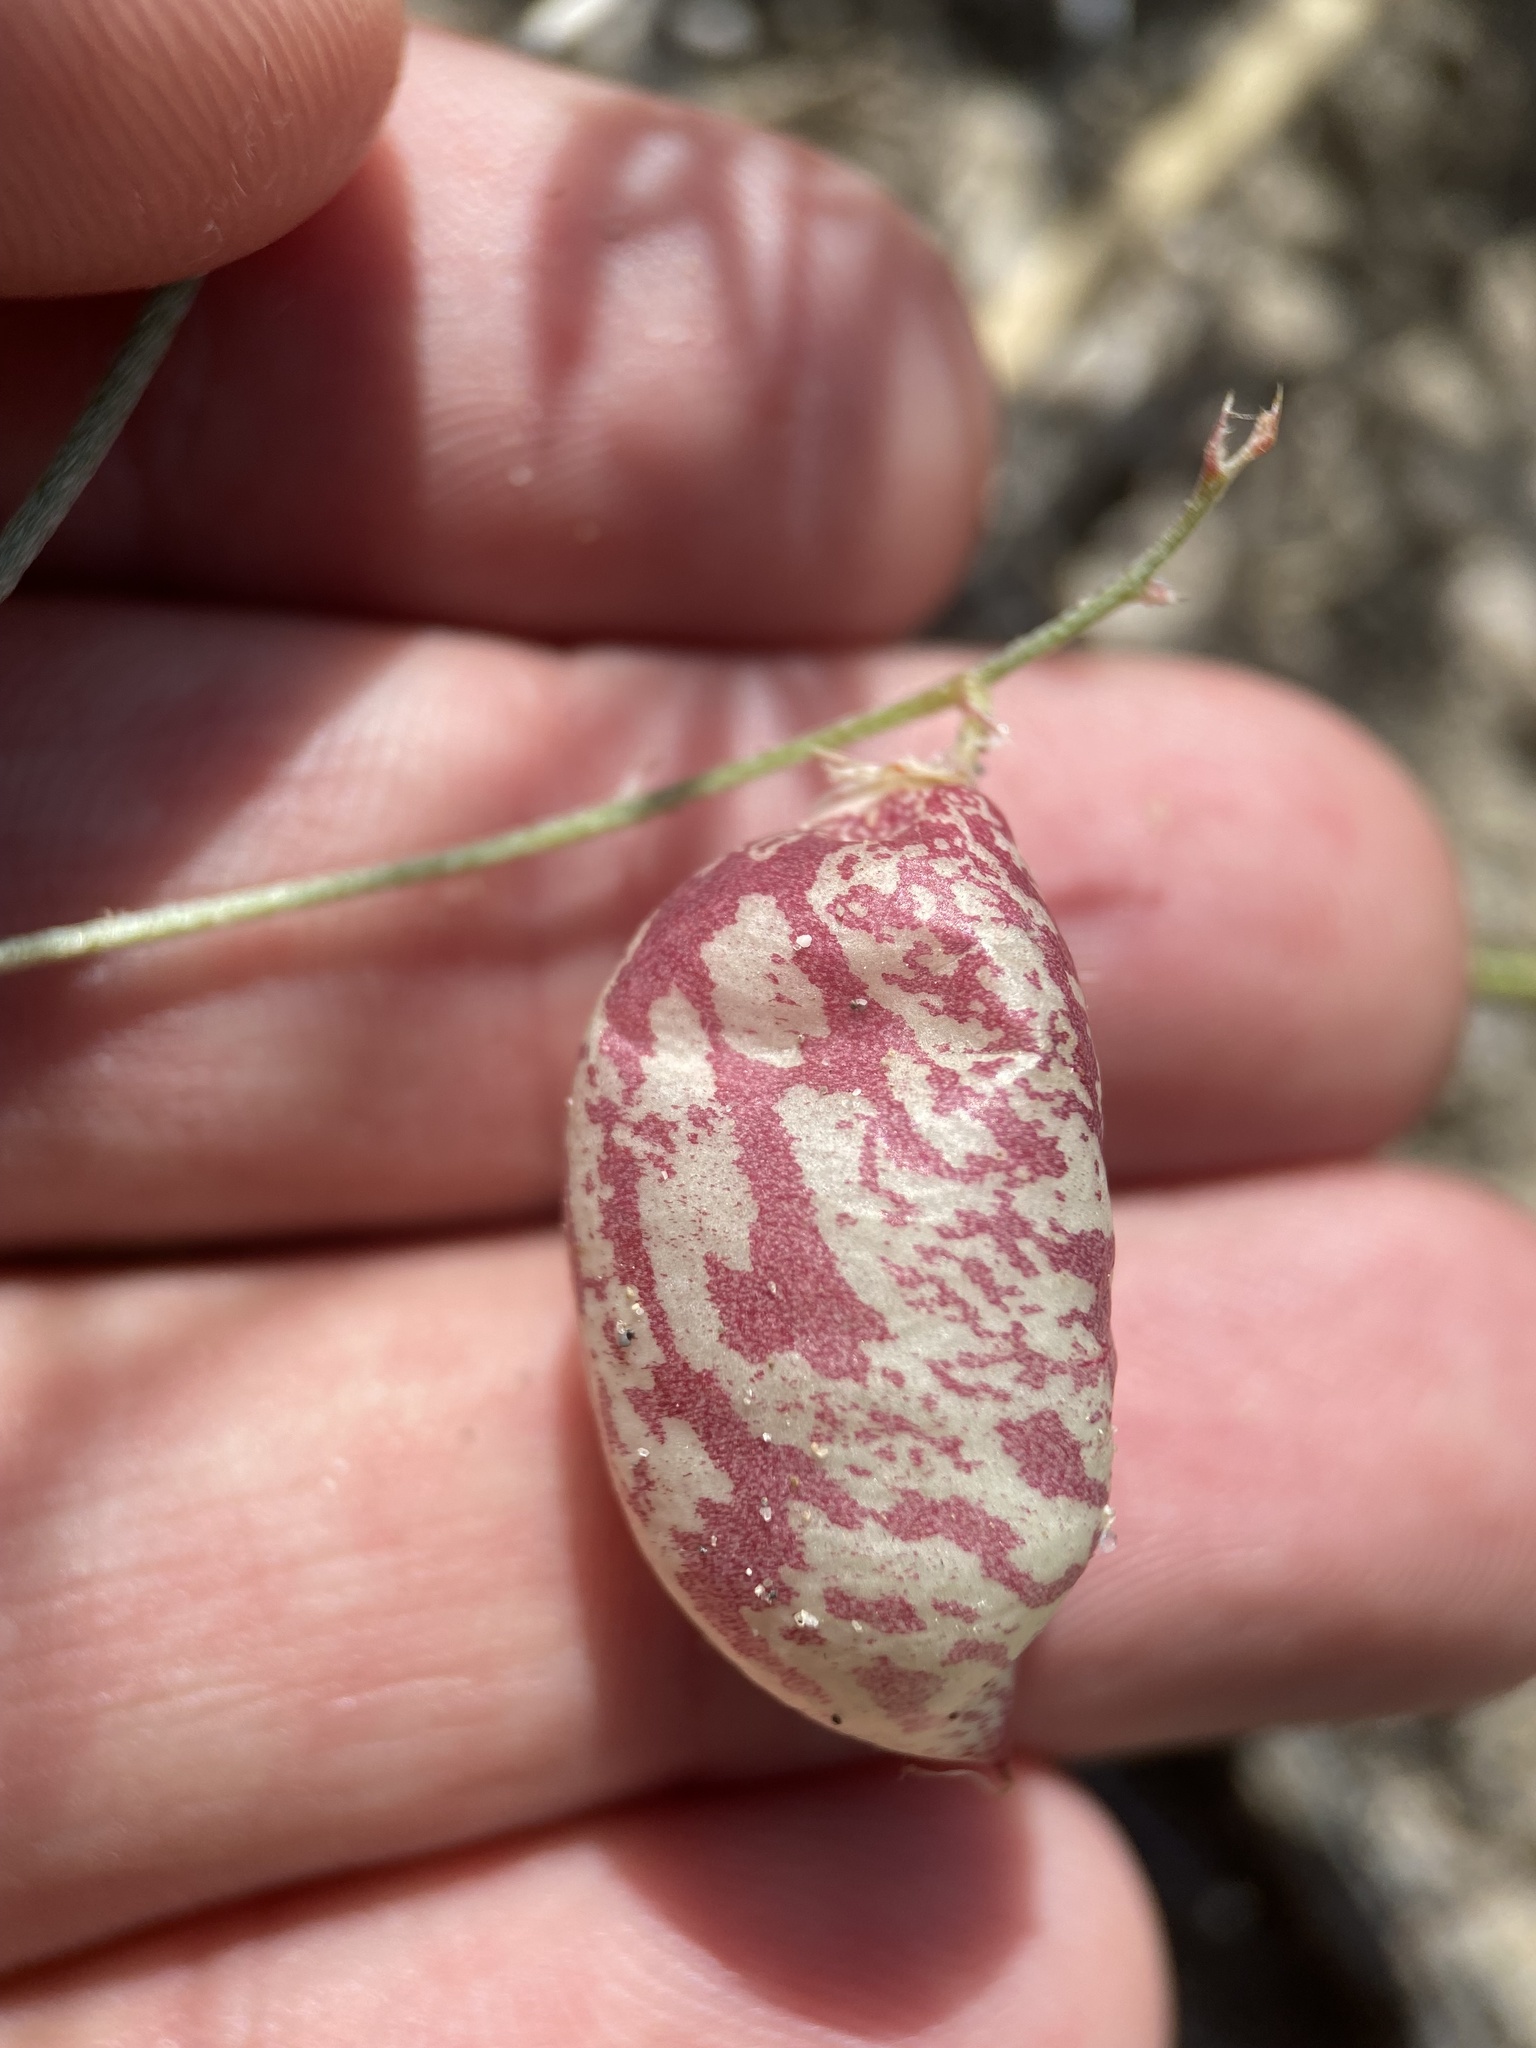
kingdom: Plantae
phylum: Tracheophyta
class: Magnoliopsida
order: Fabales
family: Fabaceae
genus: Astragalus
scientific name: Astragalus ceramicus
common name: Painted milk-vetch
